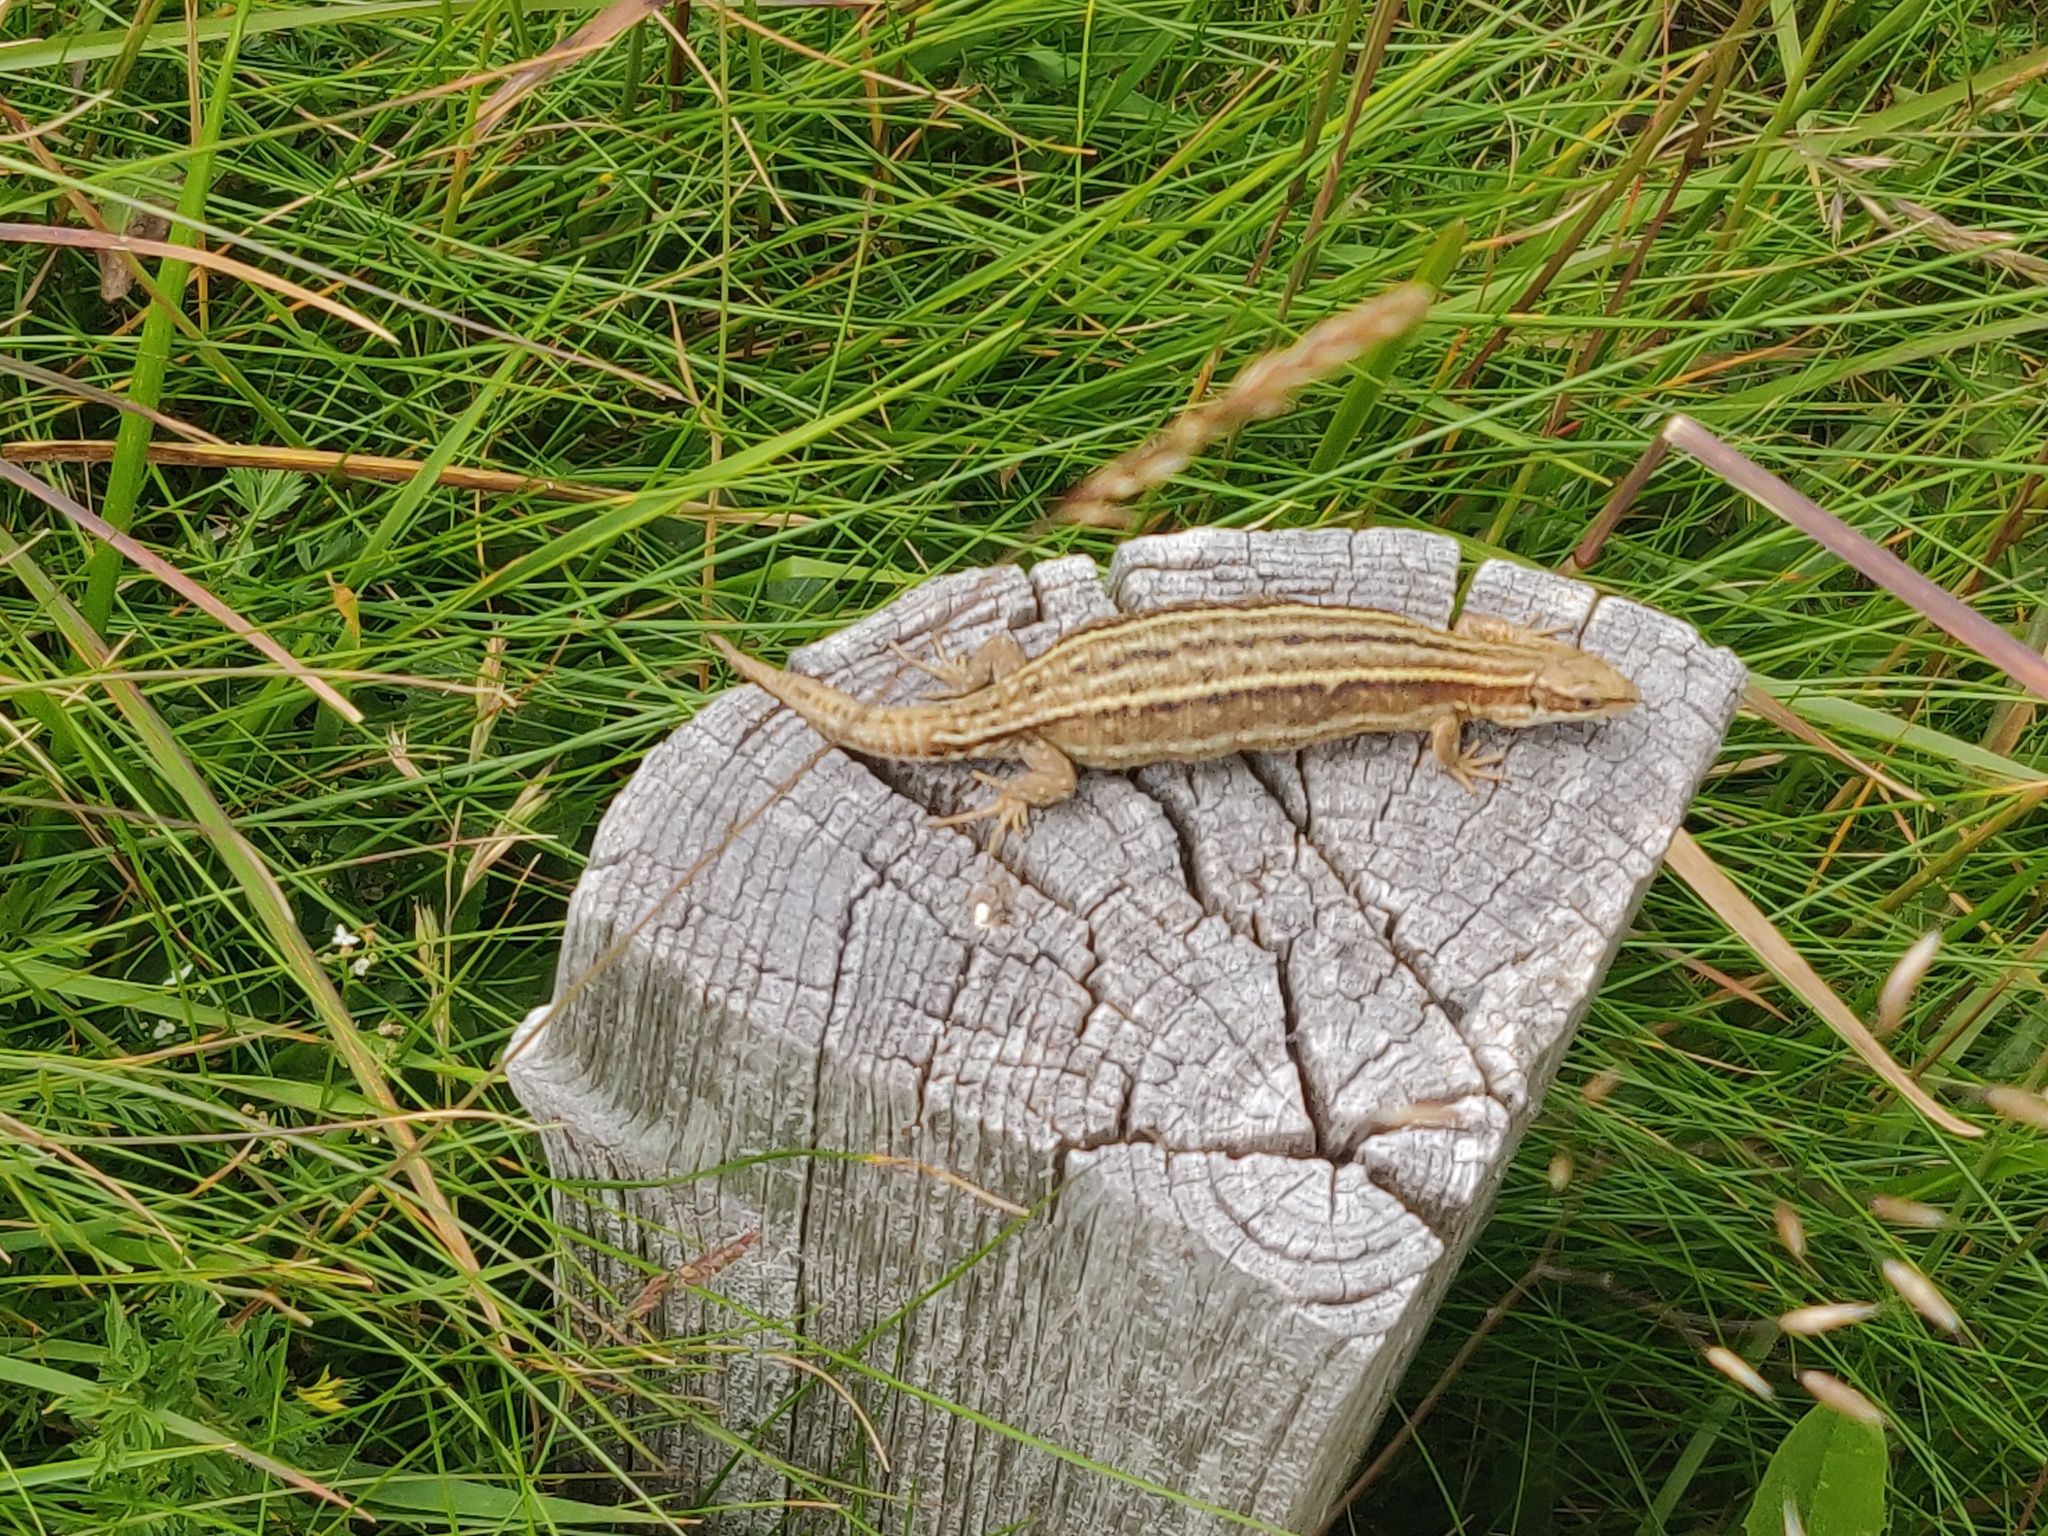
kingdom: Animalia
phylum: Chordata
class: Squamata
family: Lacertidae
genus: Zootoca
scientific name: Zootoca vivipara
